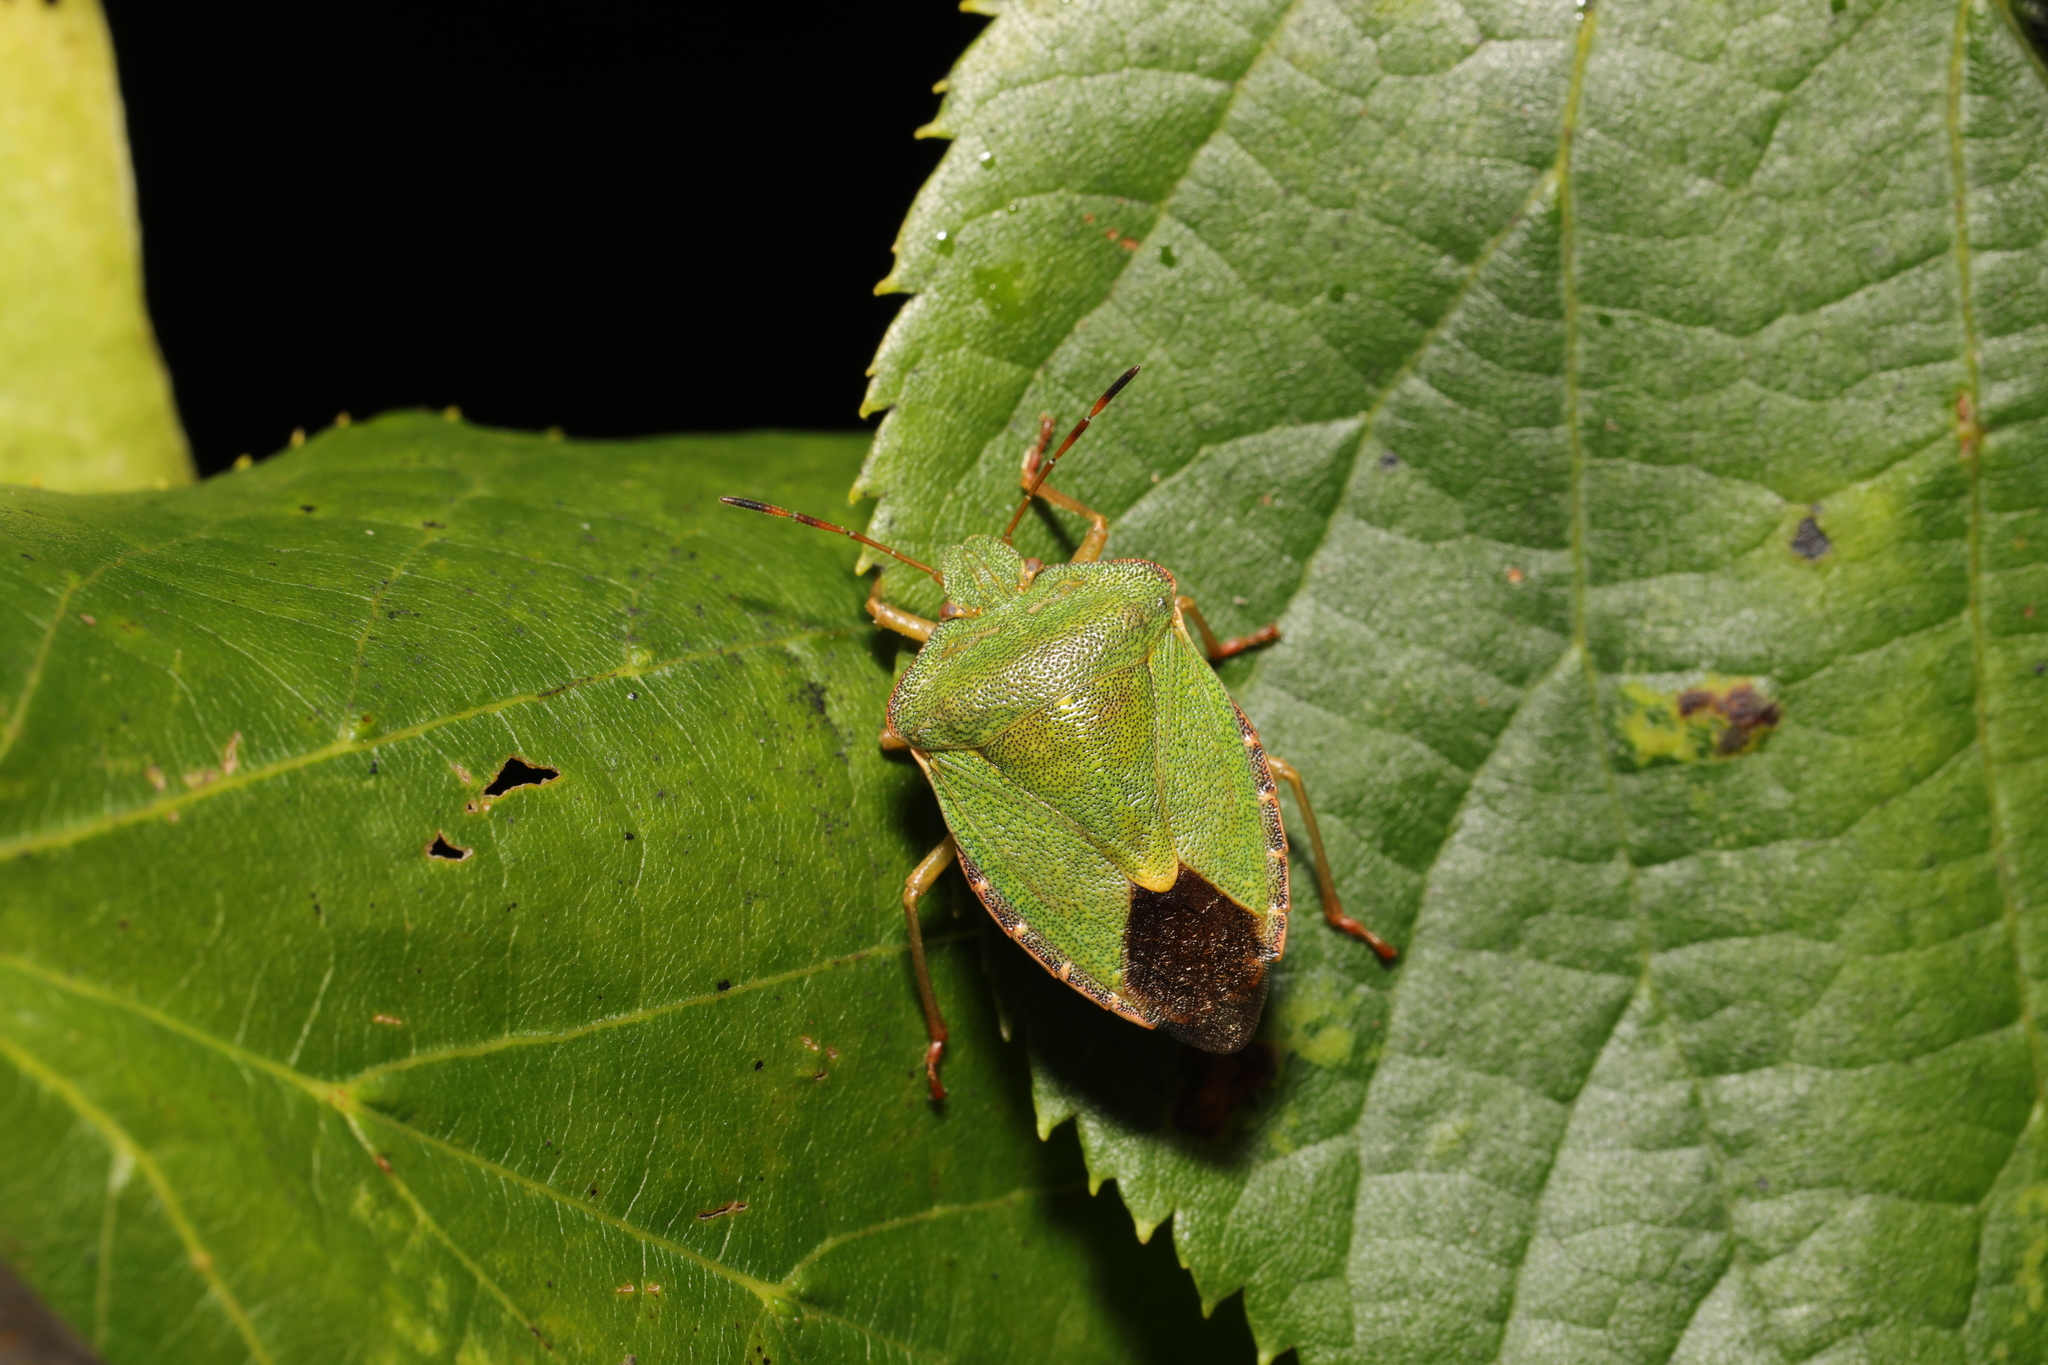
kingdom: Animalia
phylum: Arthropoda
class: Insecta
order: Hemiptera
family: Pentatomidae
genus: Palomena
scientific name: Palomena prasina
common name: Green shieldbug
